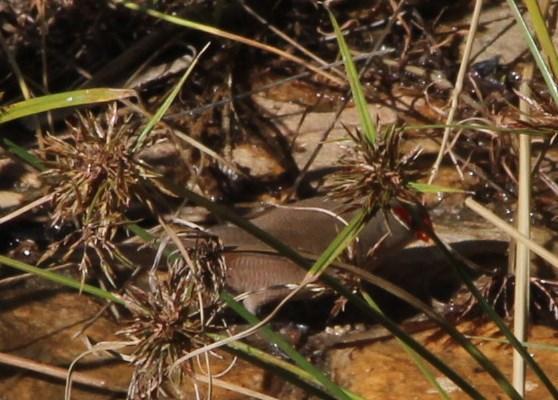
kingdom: Animalia
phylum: Chordata
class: Aves
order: Passeriformes
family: Estrildidae
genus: Estrilda
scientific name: Estrilda astrild
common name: Common waxbill
